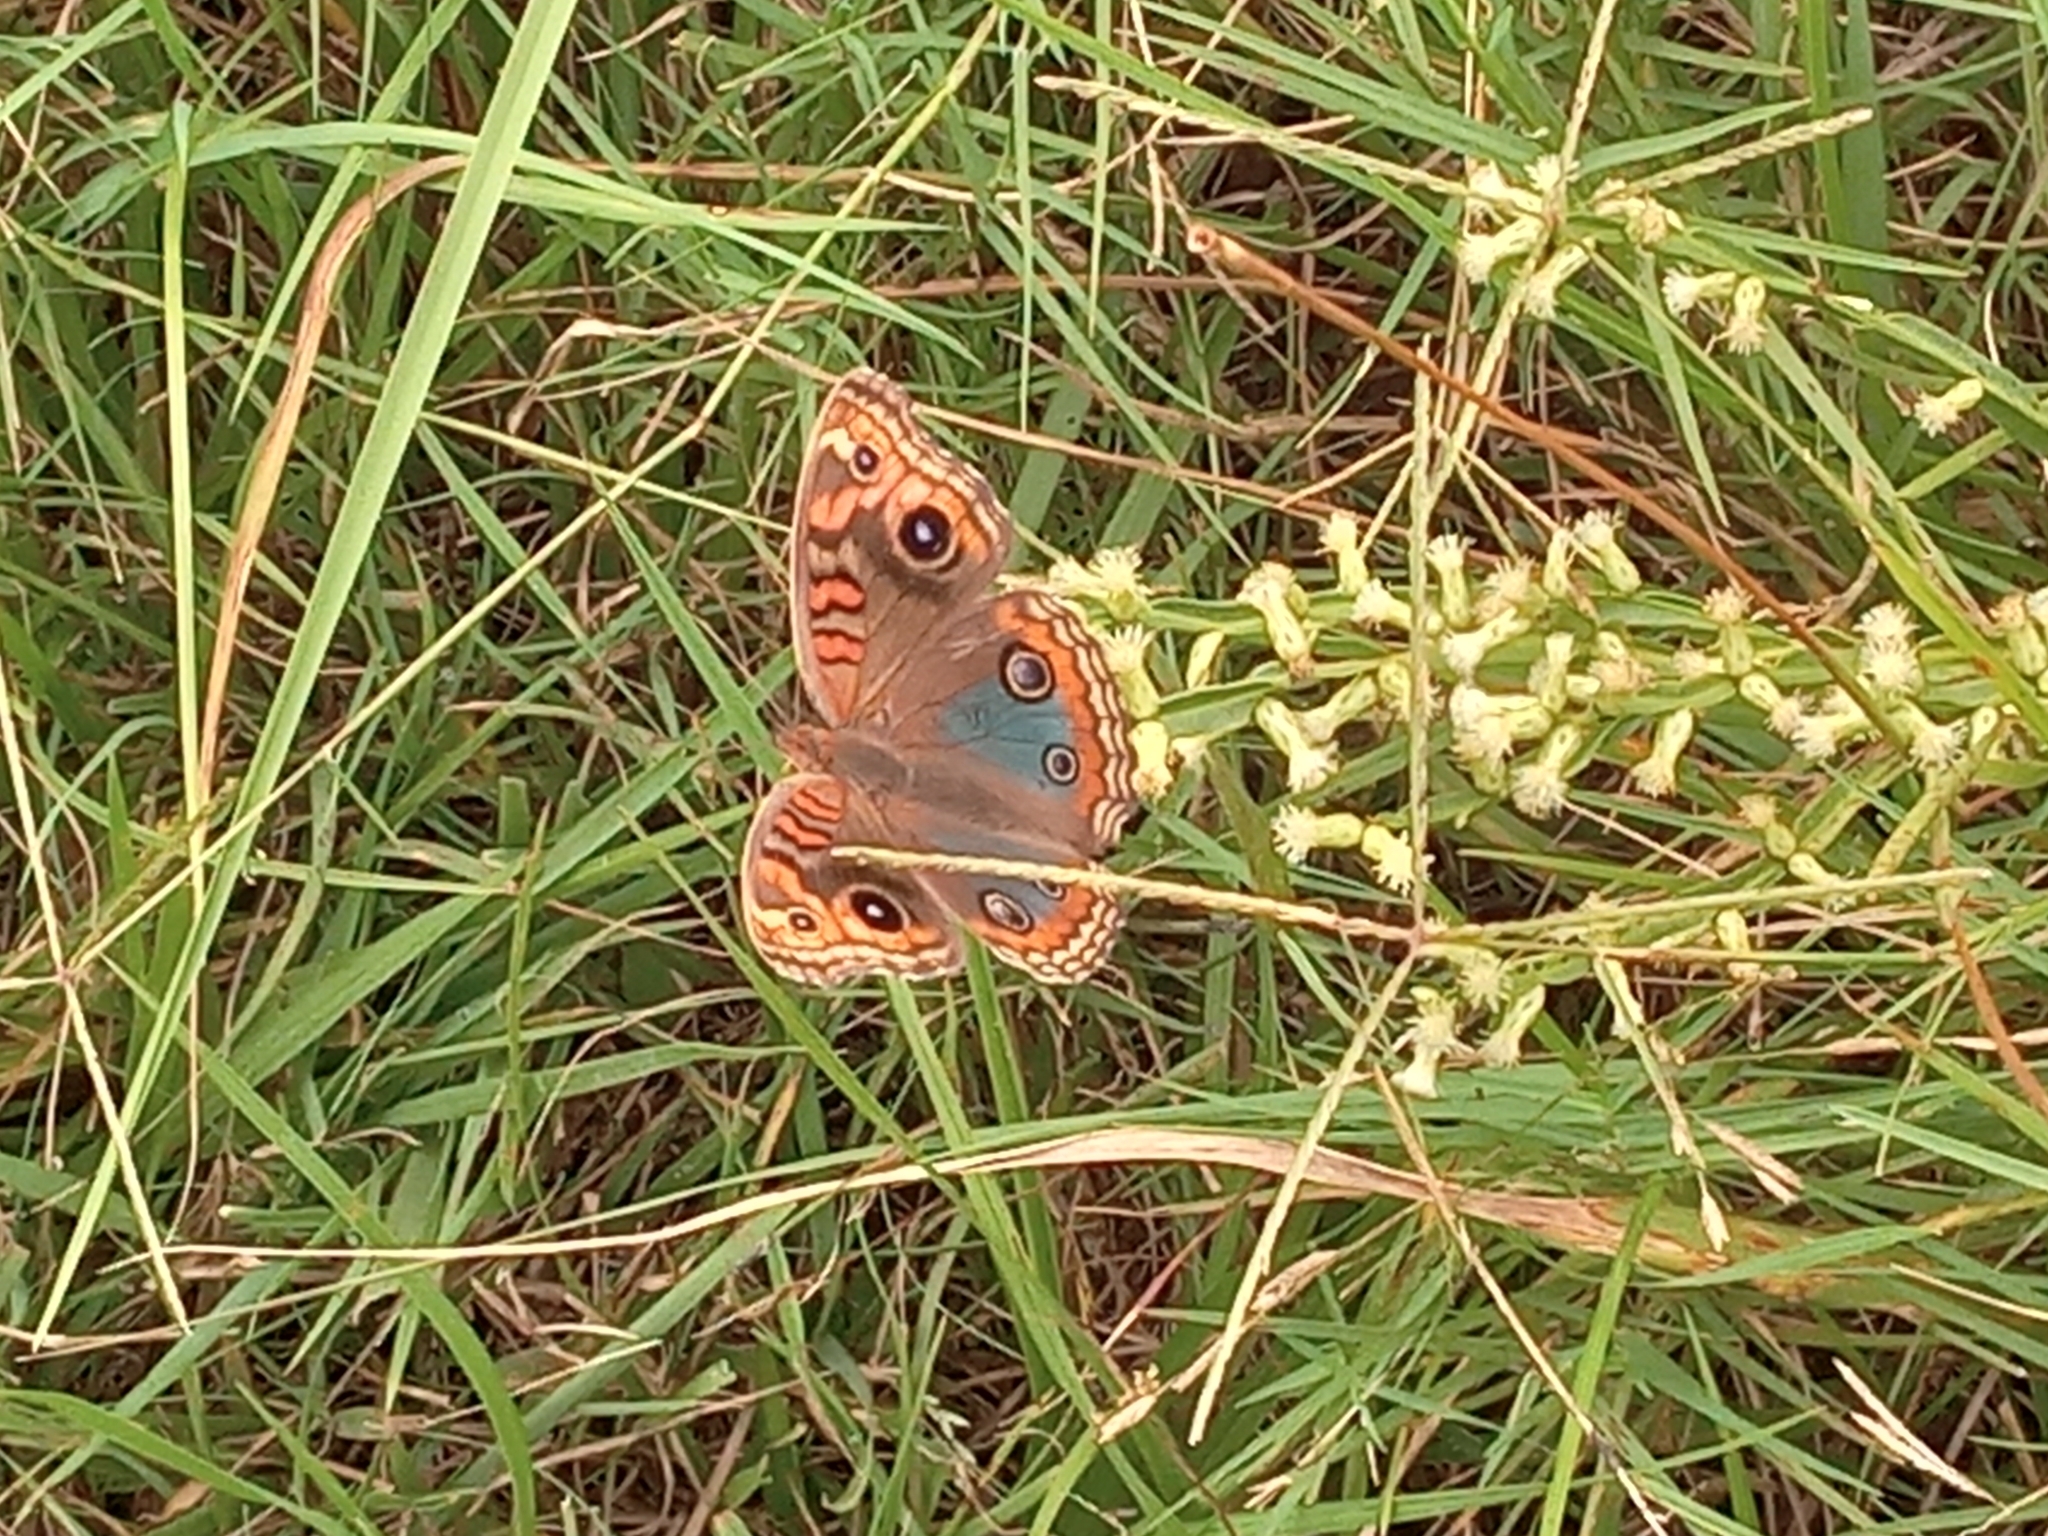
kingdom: Animalia
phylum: Arthropoda
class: Insecta
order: Lepidoptera
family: Nymphalidae
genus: Junonia
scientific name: Junonia lavinia
